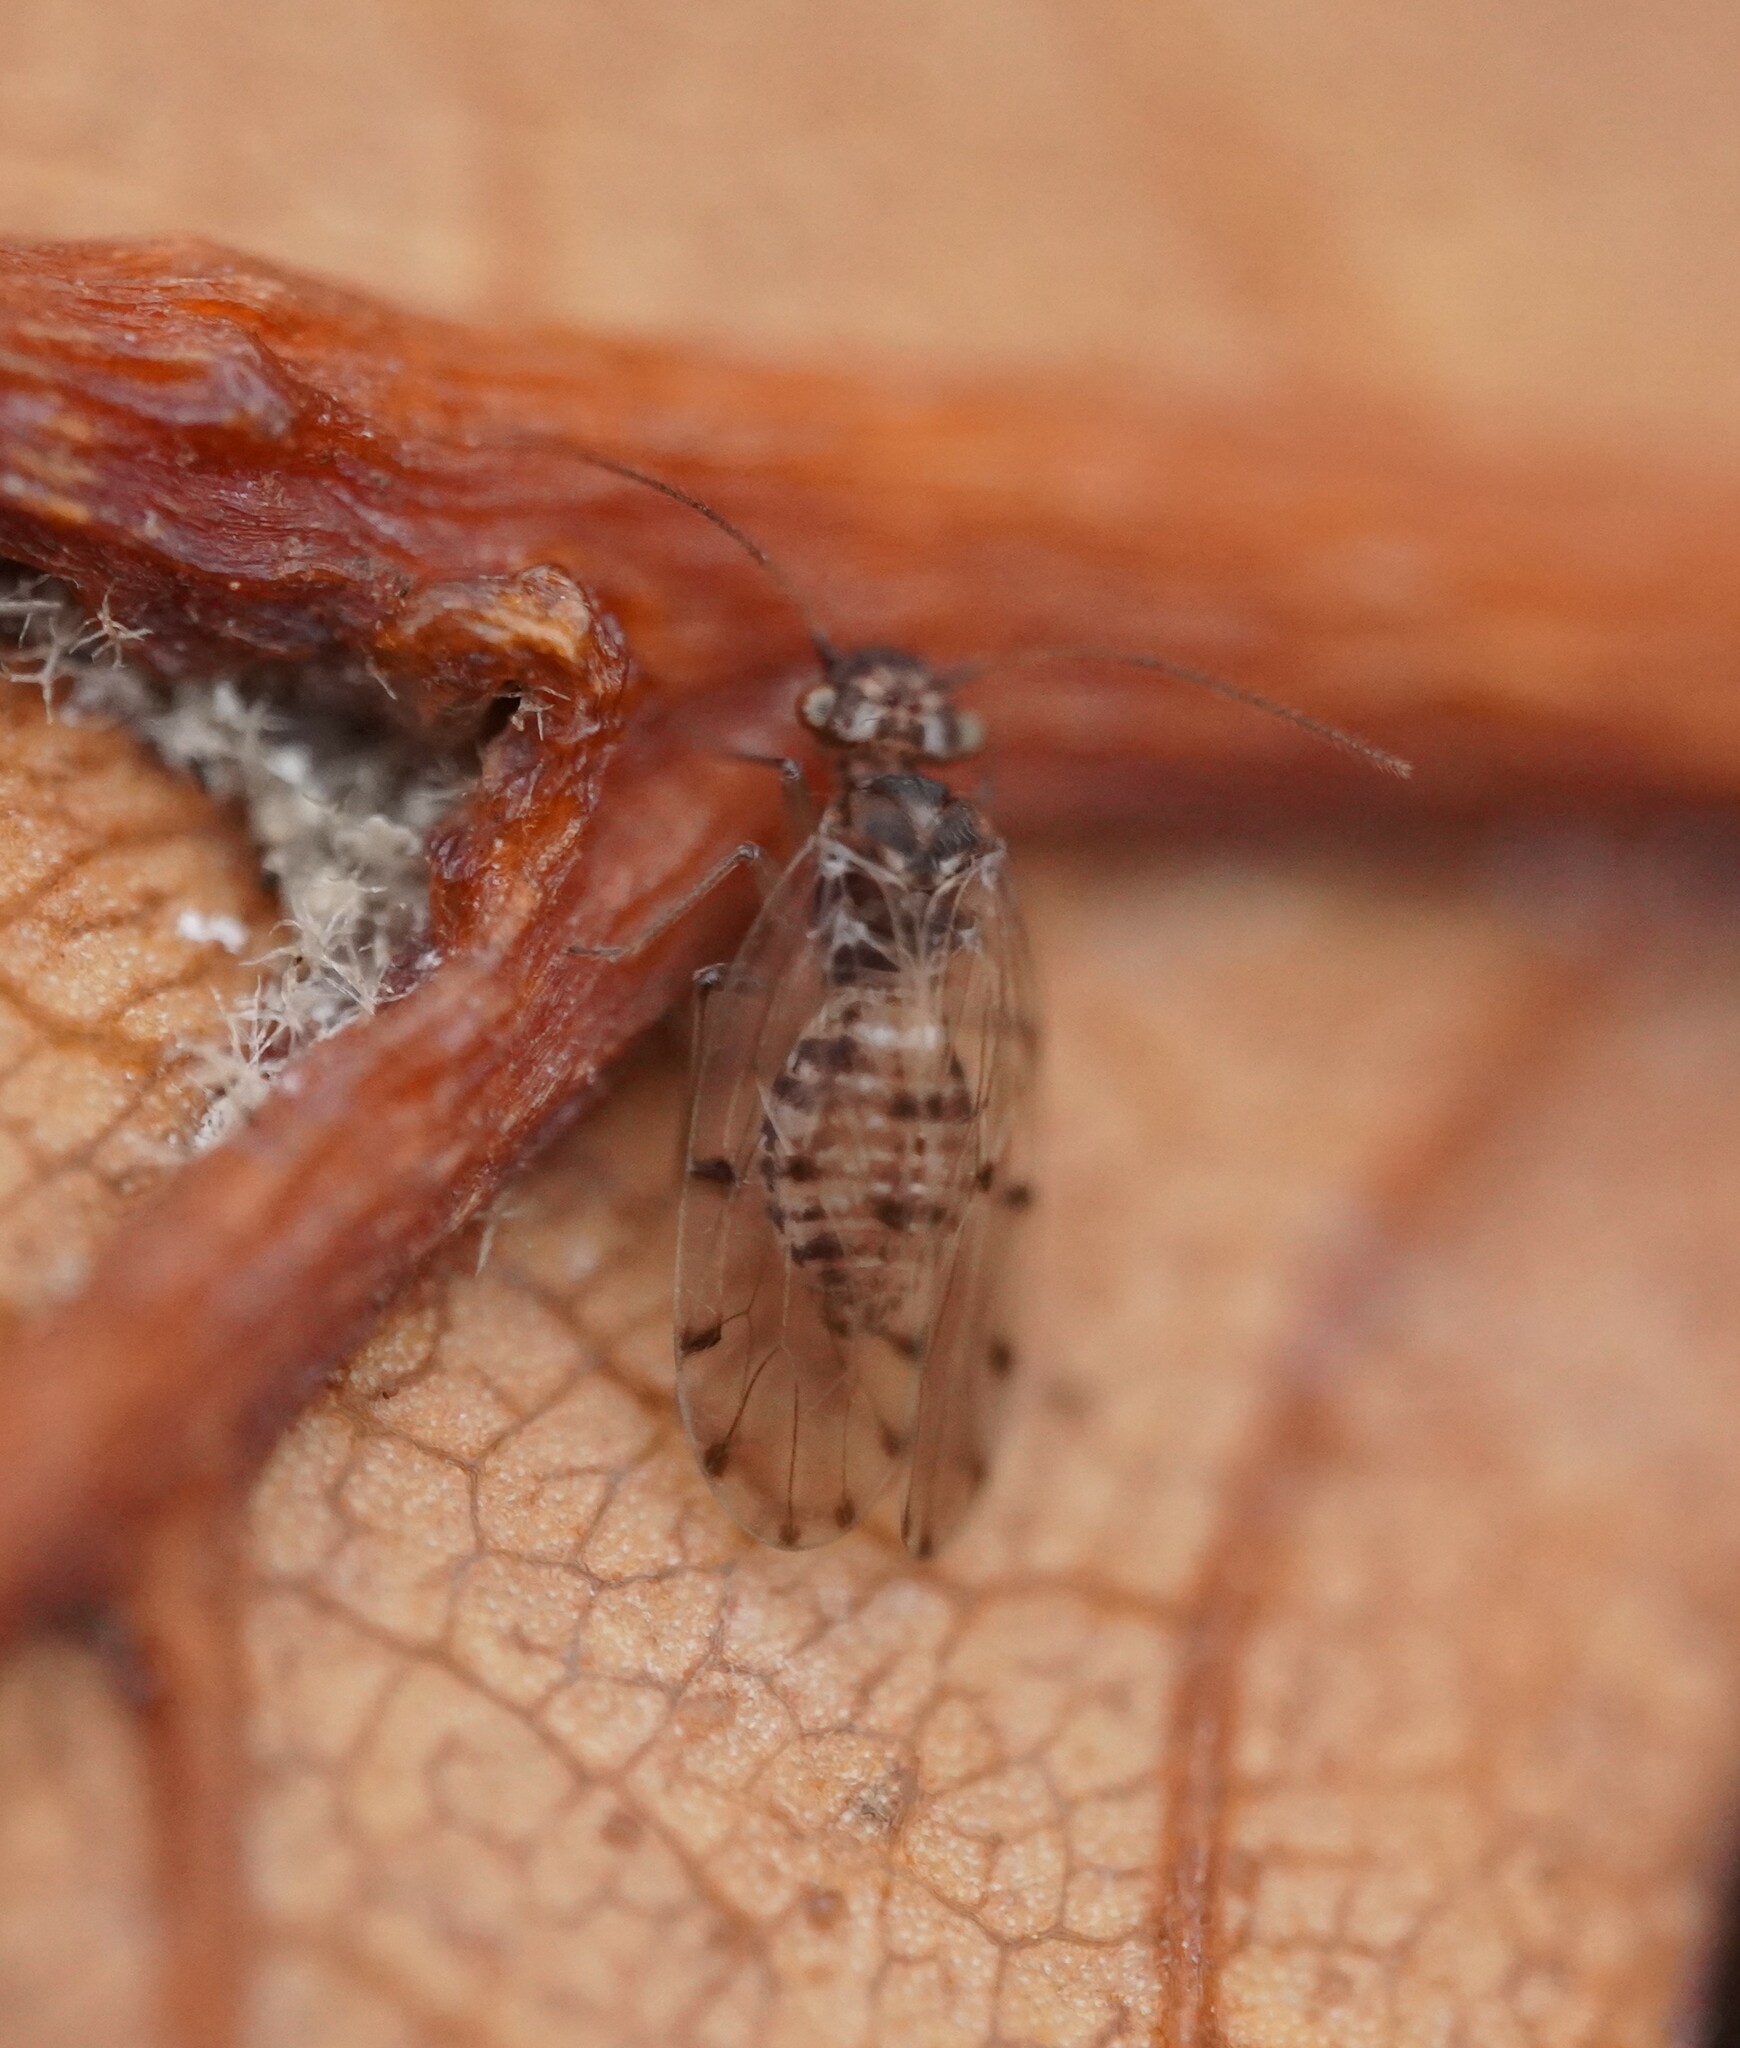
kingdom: Animalia
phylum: Arthropoda
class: Insecta
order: Psocodea
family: Ectopsocidae
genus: Ectopsocus
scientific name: Ectopsocus petersi
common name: Medium-sized bark louse
